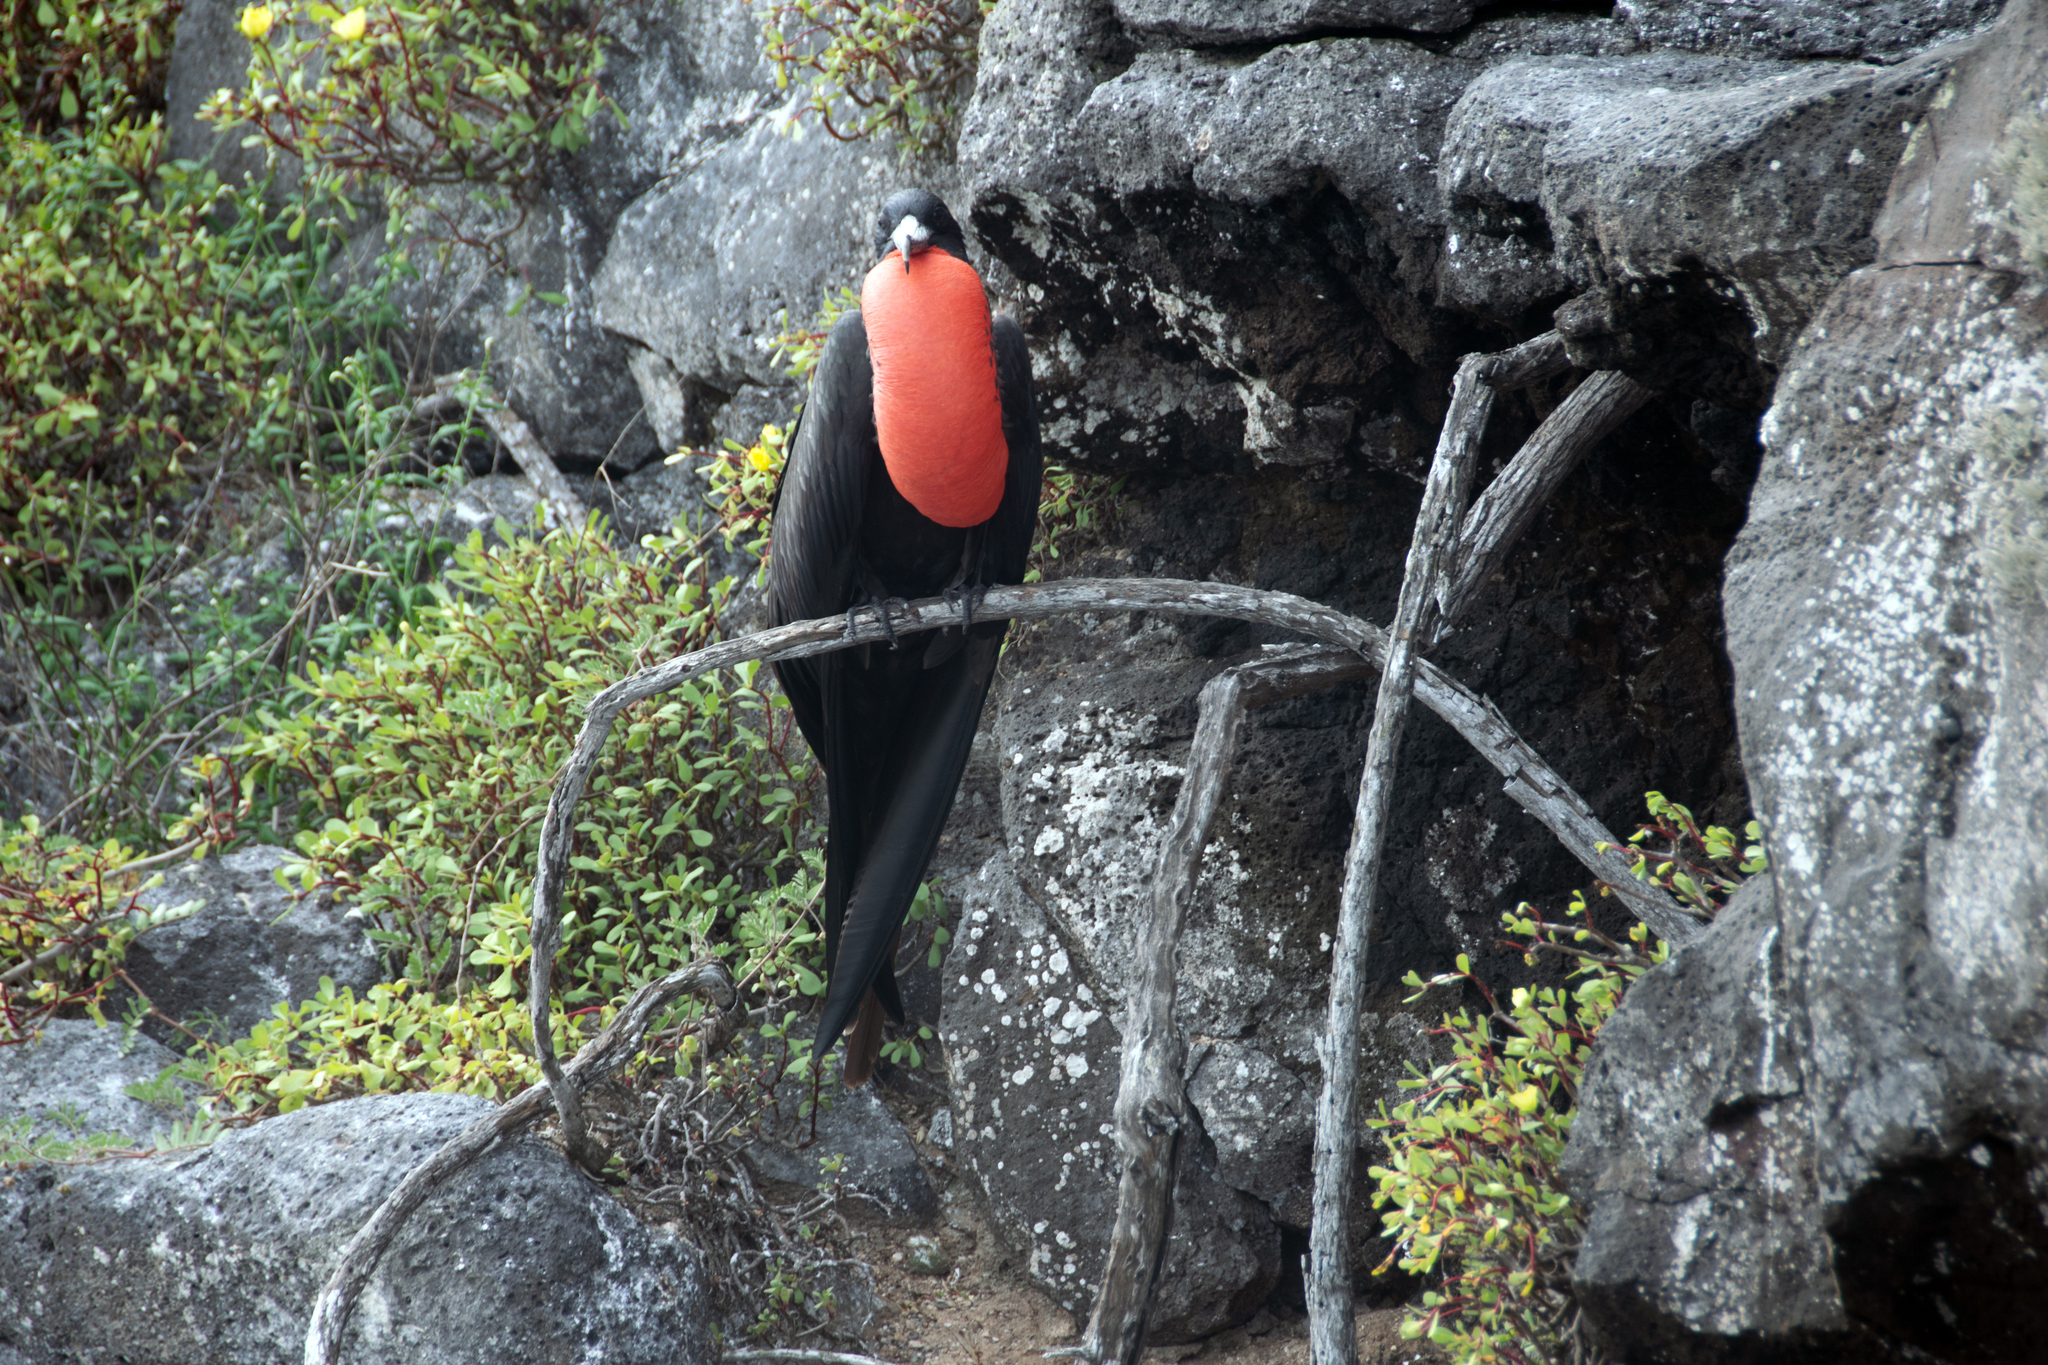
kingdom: Animalia
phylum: Chordata
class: Aves
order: Suliformes
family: Fregatidae
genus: Fregata
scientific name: Fregata magnificens
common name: Magnificent frigatebird
